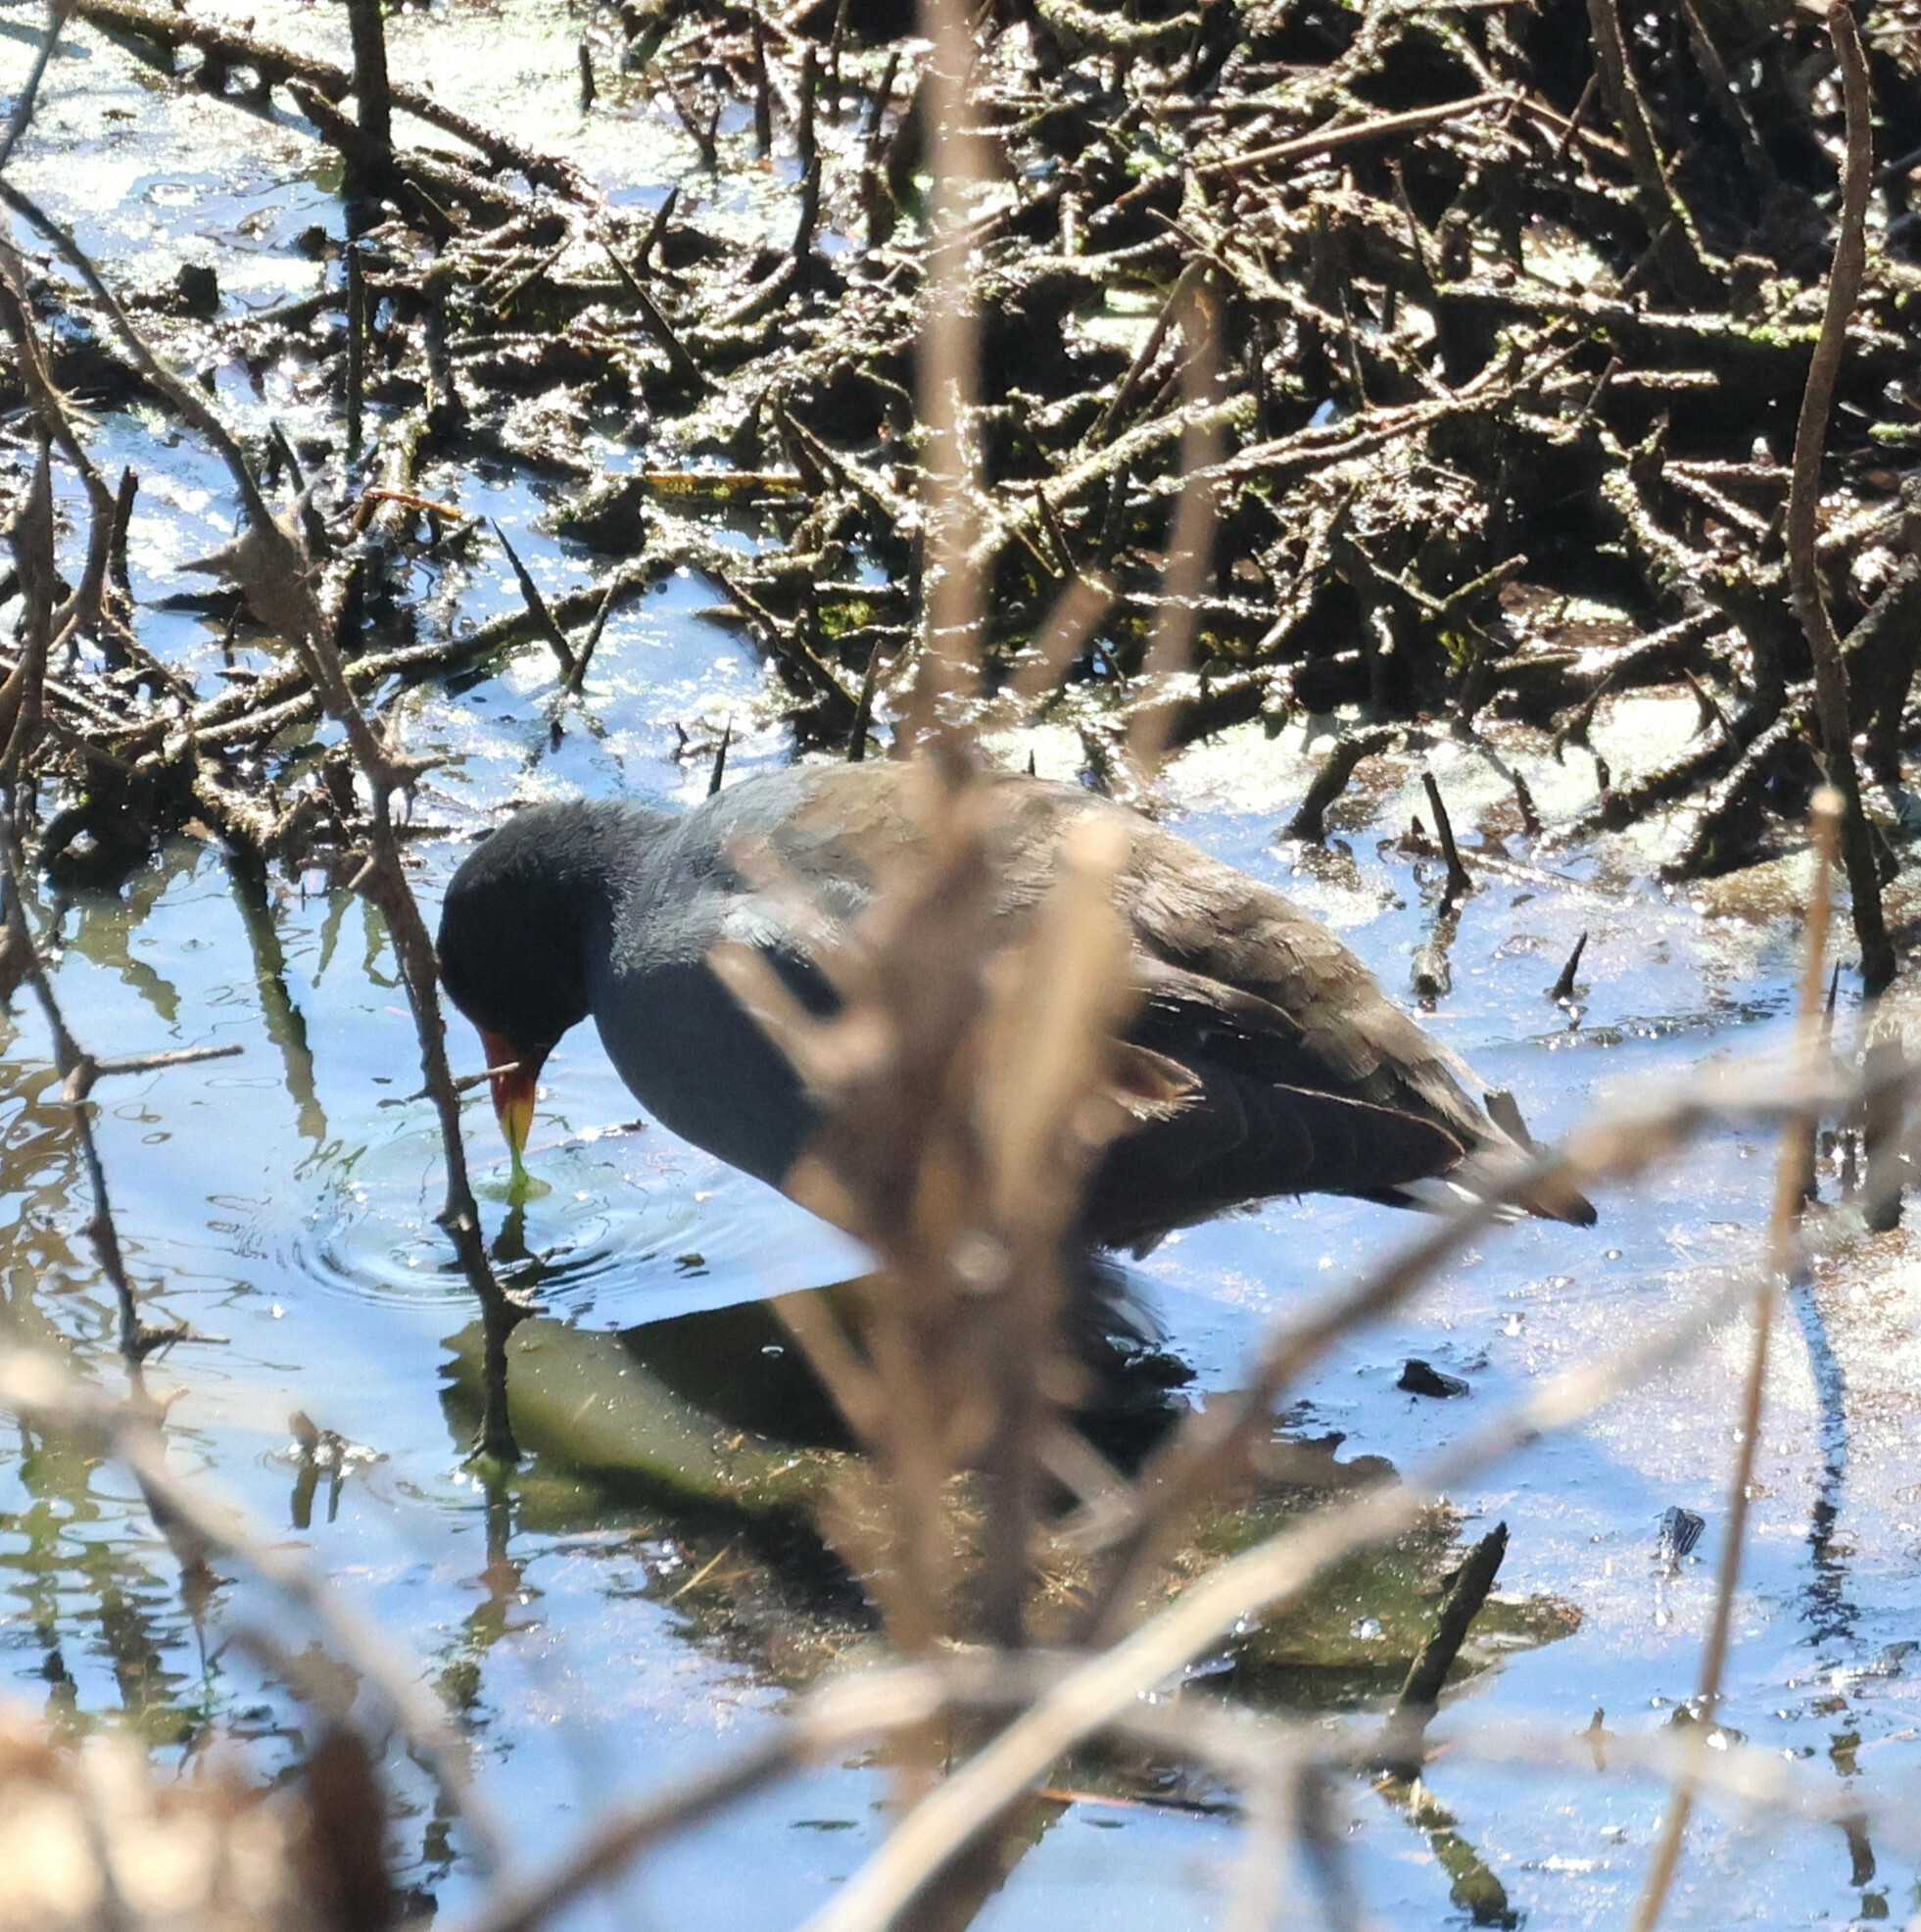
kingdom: Animalia
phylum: Chordata
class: Aves
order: Gruiformes
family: Rallidae
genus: Gallinula
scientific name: Gallinula chloropus
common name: Common moorhen
